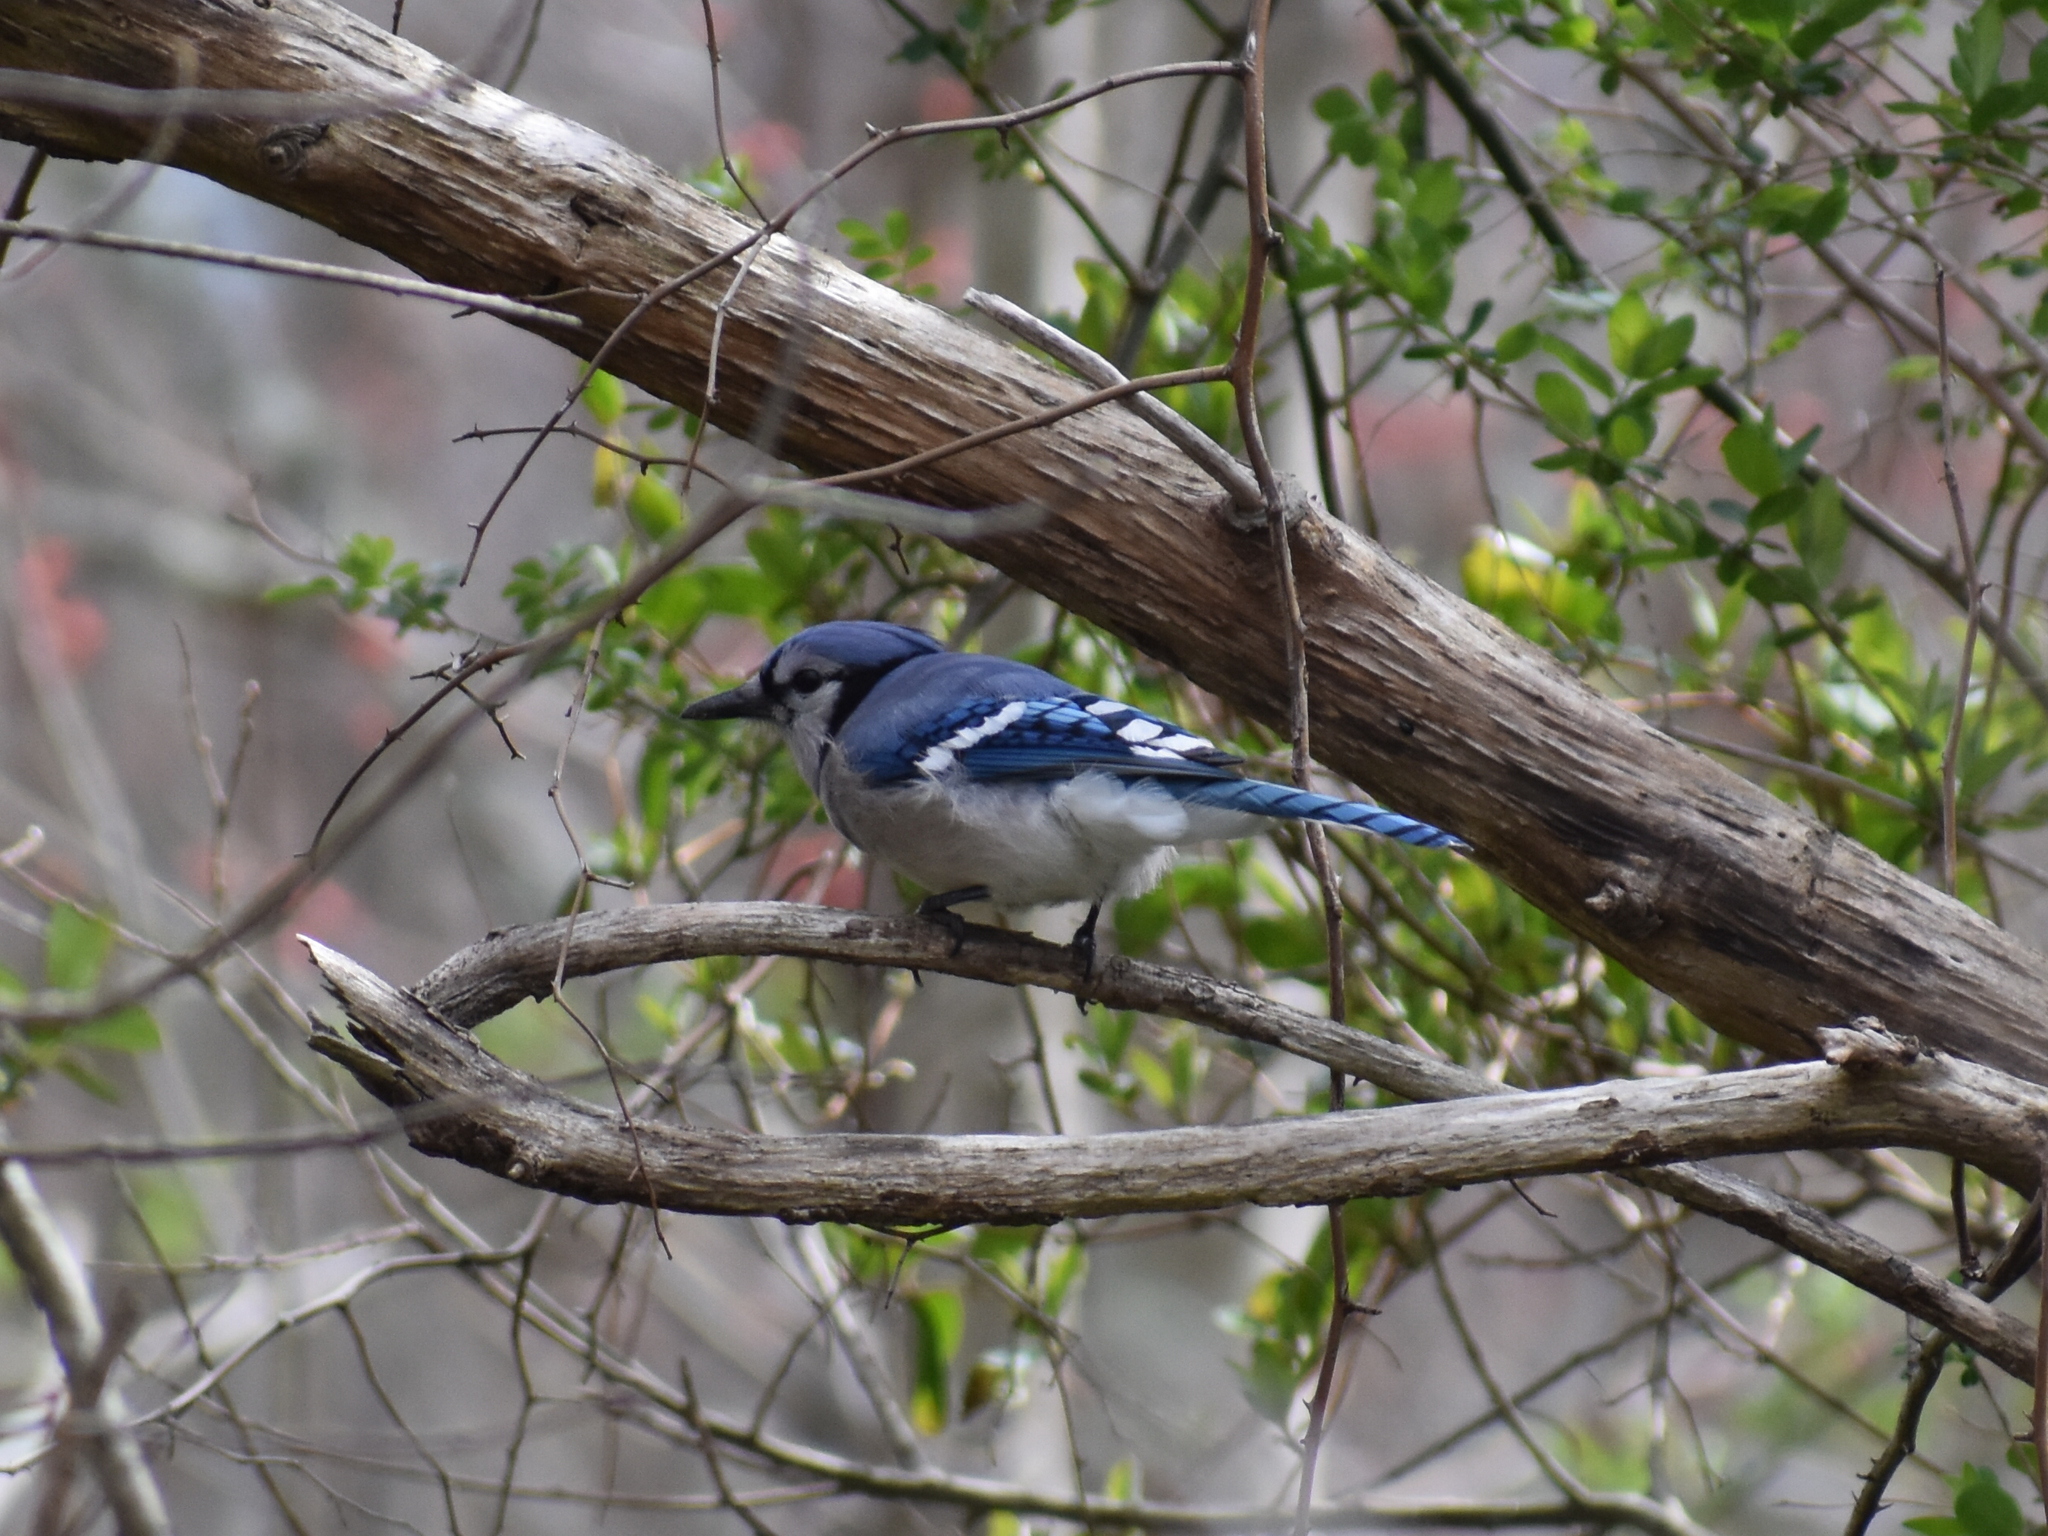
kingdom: Animalia
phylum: Chordata
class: Aves
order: Passeriformes
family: Corvidae
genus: Cyanocitta
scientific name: Cyanocitta cristata
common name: Blue jay
